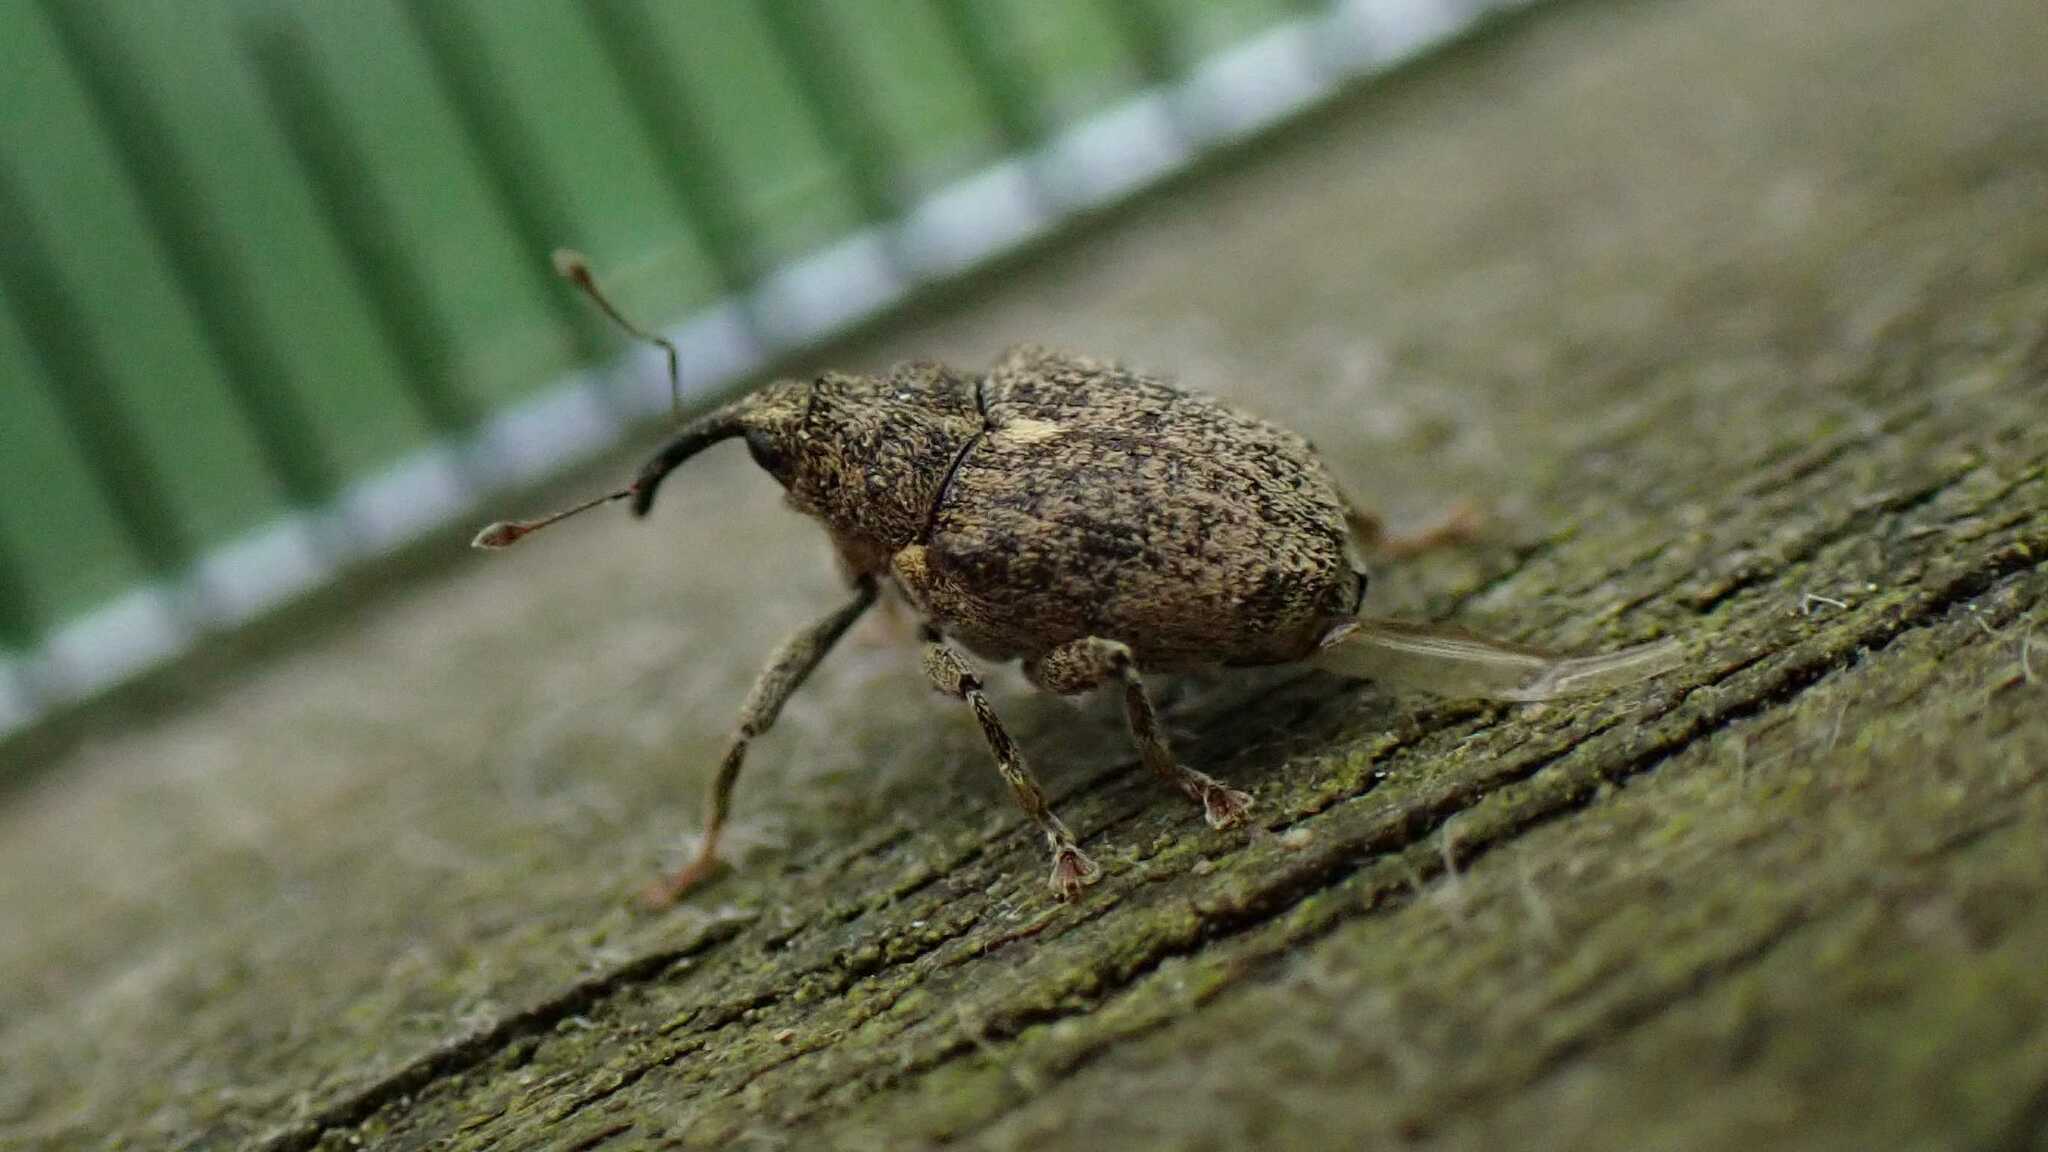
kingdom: Animalia
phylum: Arthropoda
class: Insecta
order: Coleoptera
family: Curculionidae
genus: Ceutorhynchus
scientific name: Ceutorhynchus pallidactylus
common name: Cabbage stem weavil
